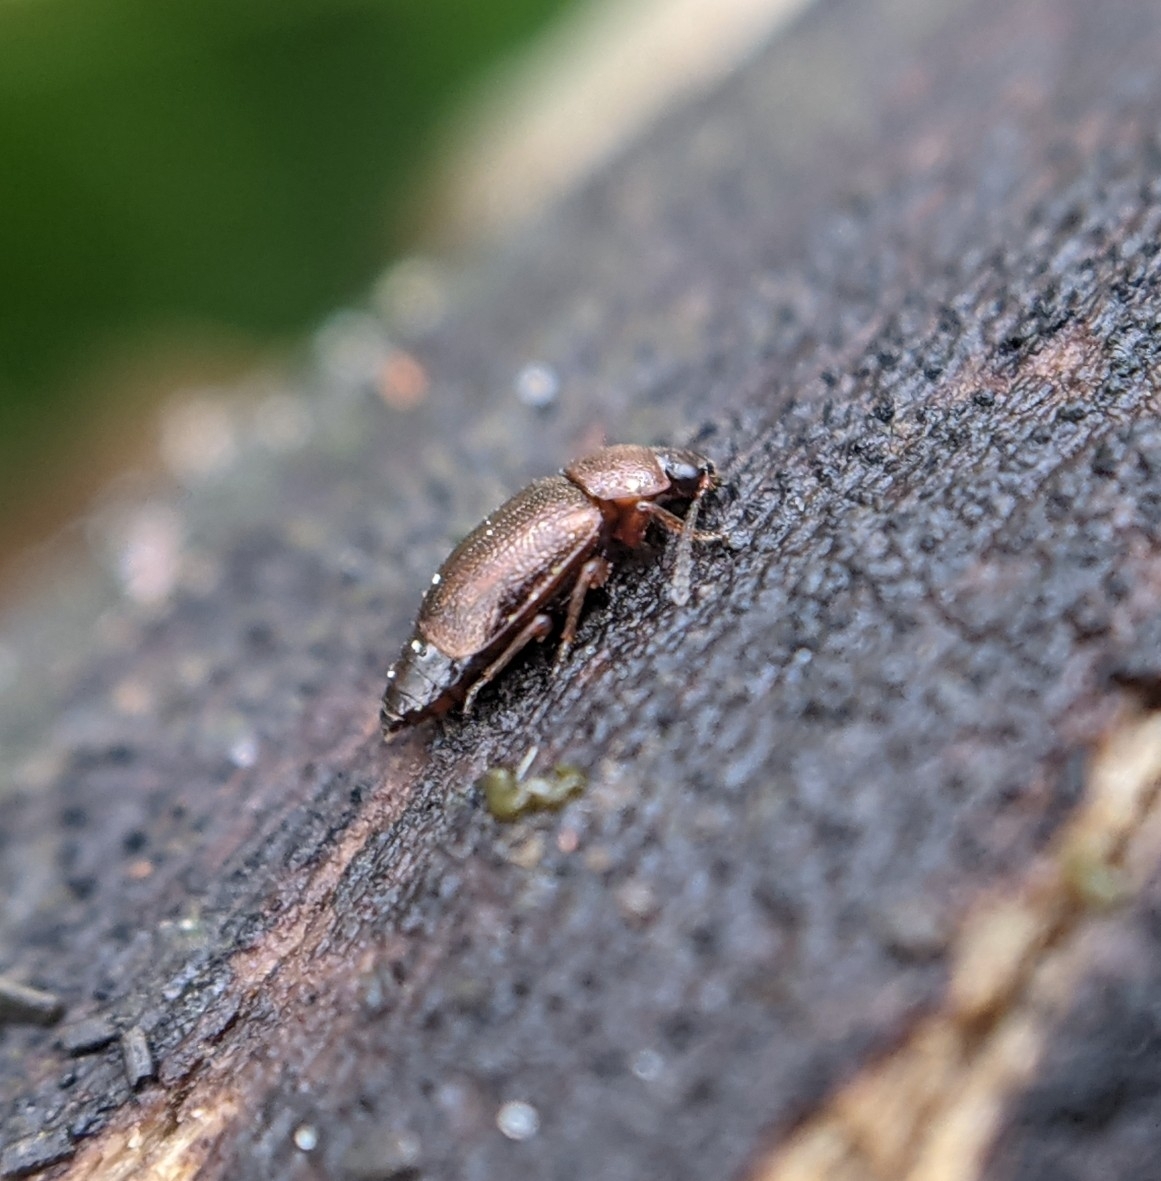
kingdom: Animalia
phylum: Arthropoda
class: Insecta
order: Coleoptera
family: Staphylinidae
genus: Anthobium
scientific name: Anthobium atrocephalum
